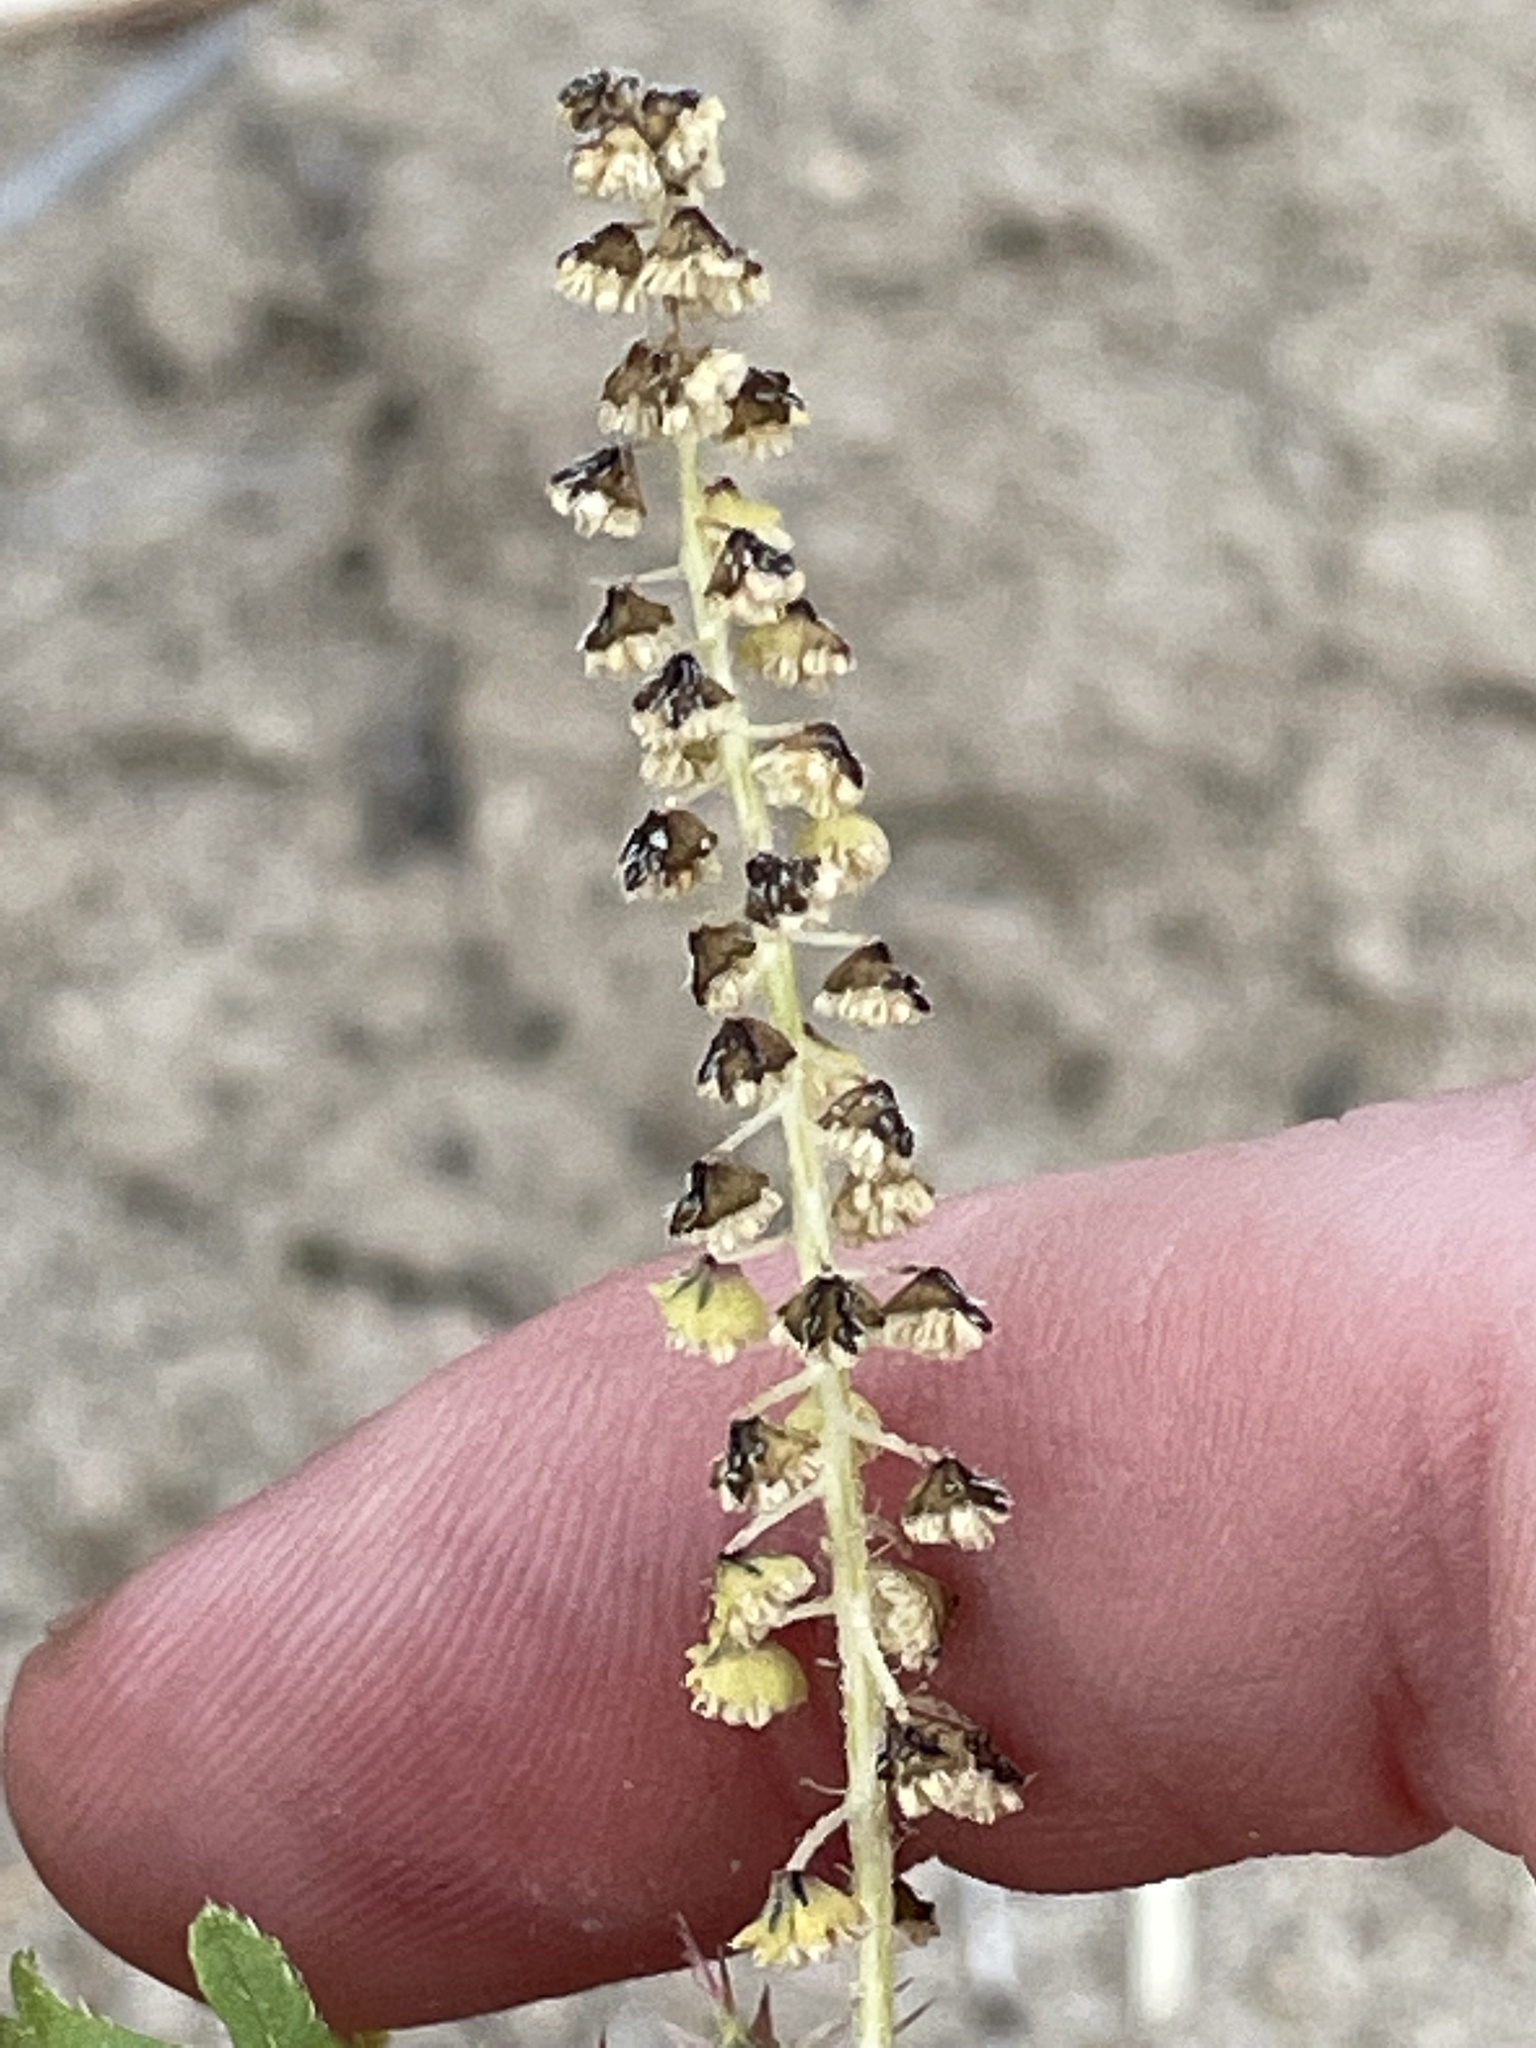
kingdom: Plantae
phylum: Tracheophyta
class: Magnoliopsida
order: Asterales
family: Asteraceae
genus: Ambrosia
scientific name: Ambrosia acanthicarpa
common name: Hooker's bur ragweed
